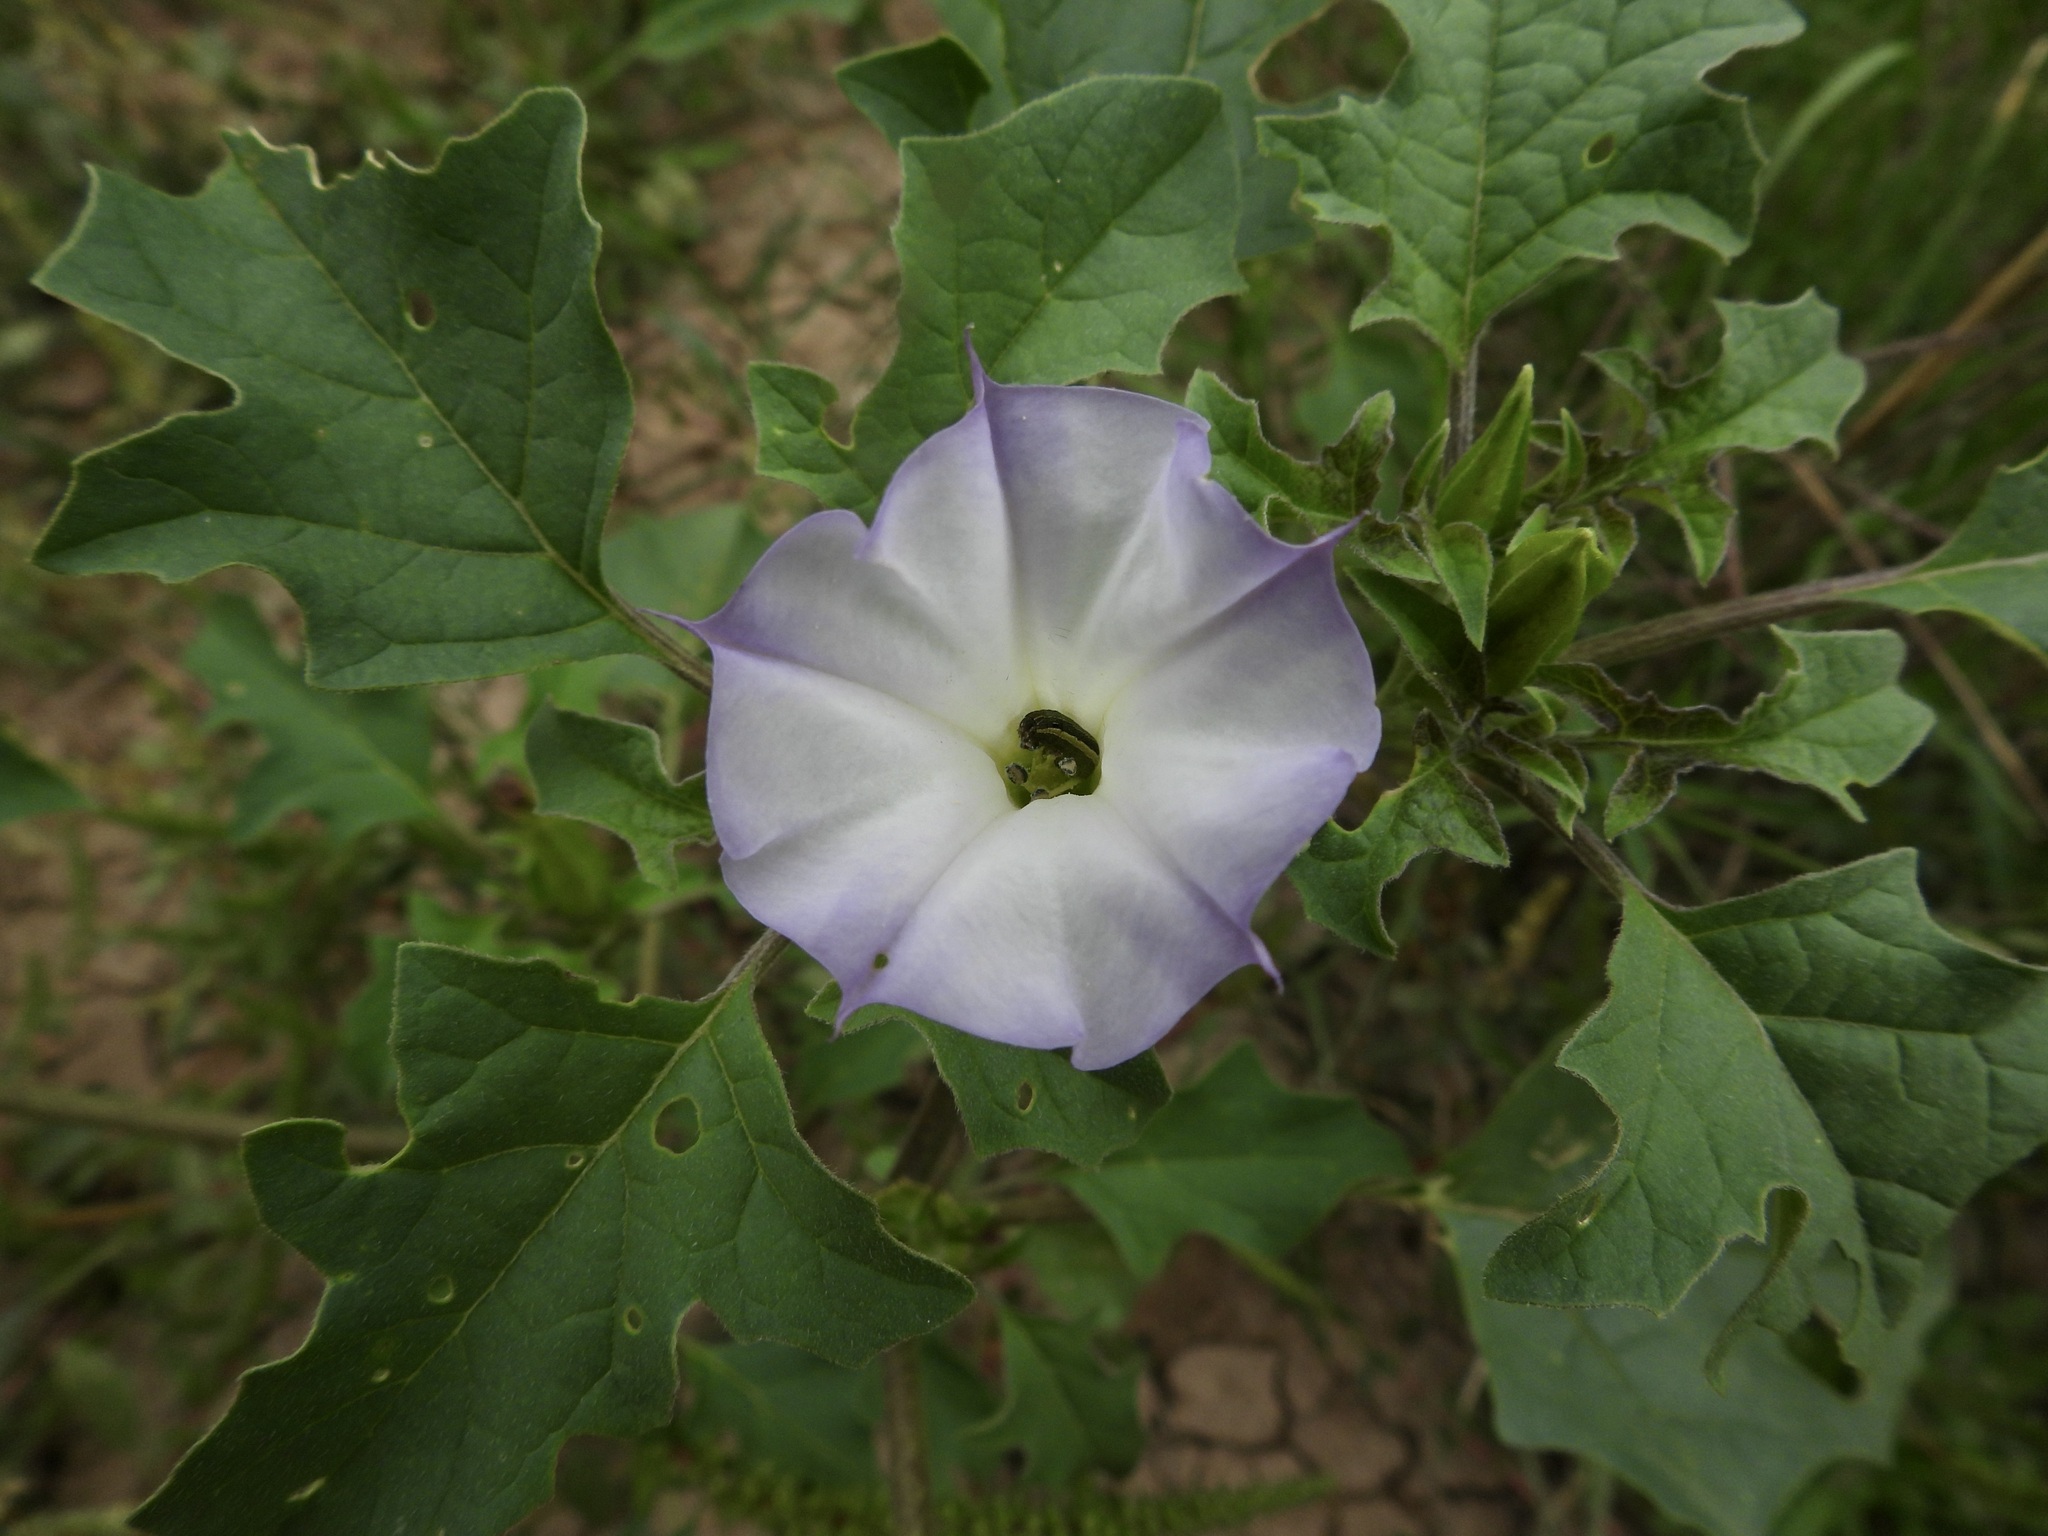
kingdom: Plantae
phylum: Tracheophyta
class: Magnoliopsida
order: Solanales
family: Solanaceae
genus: Datura
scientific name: Datura quercifolia
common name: Oak-leaf datura
